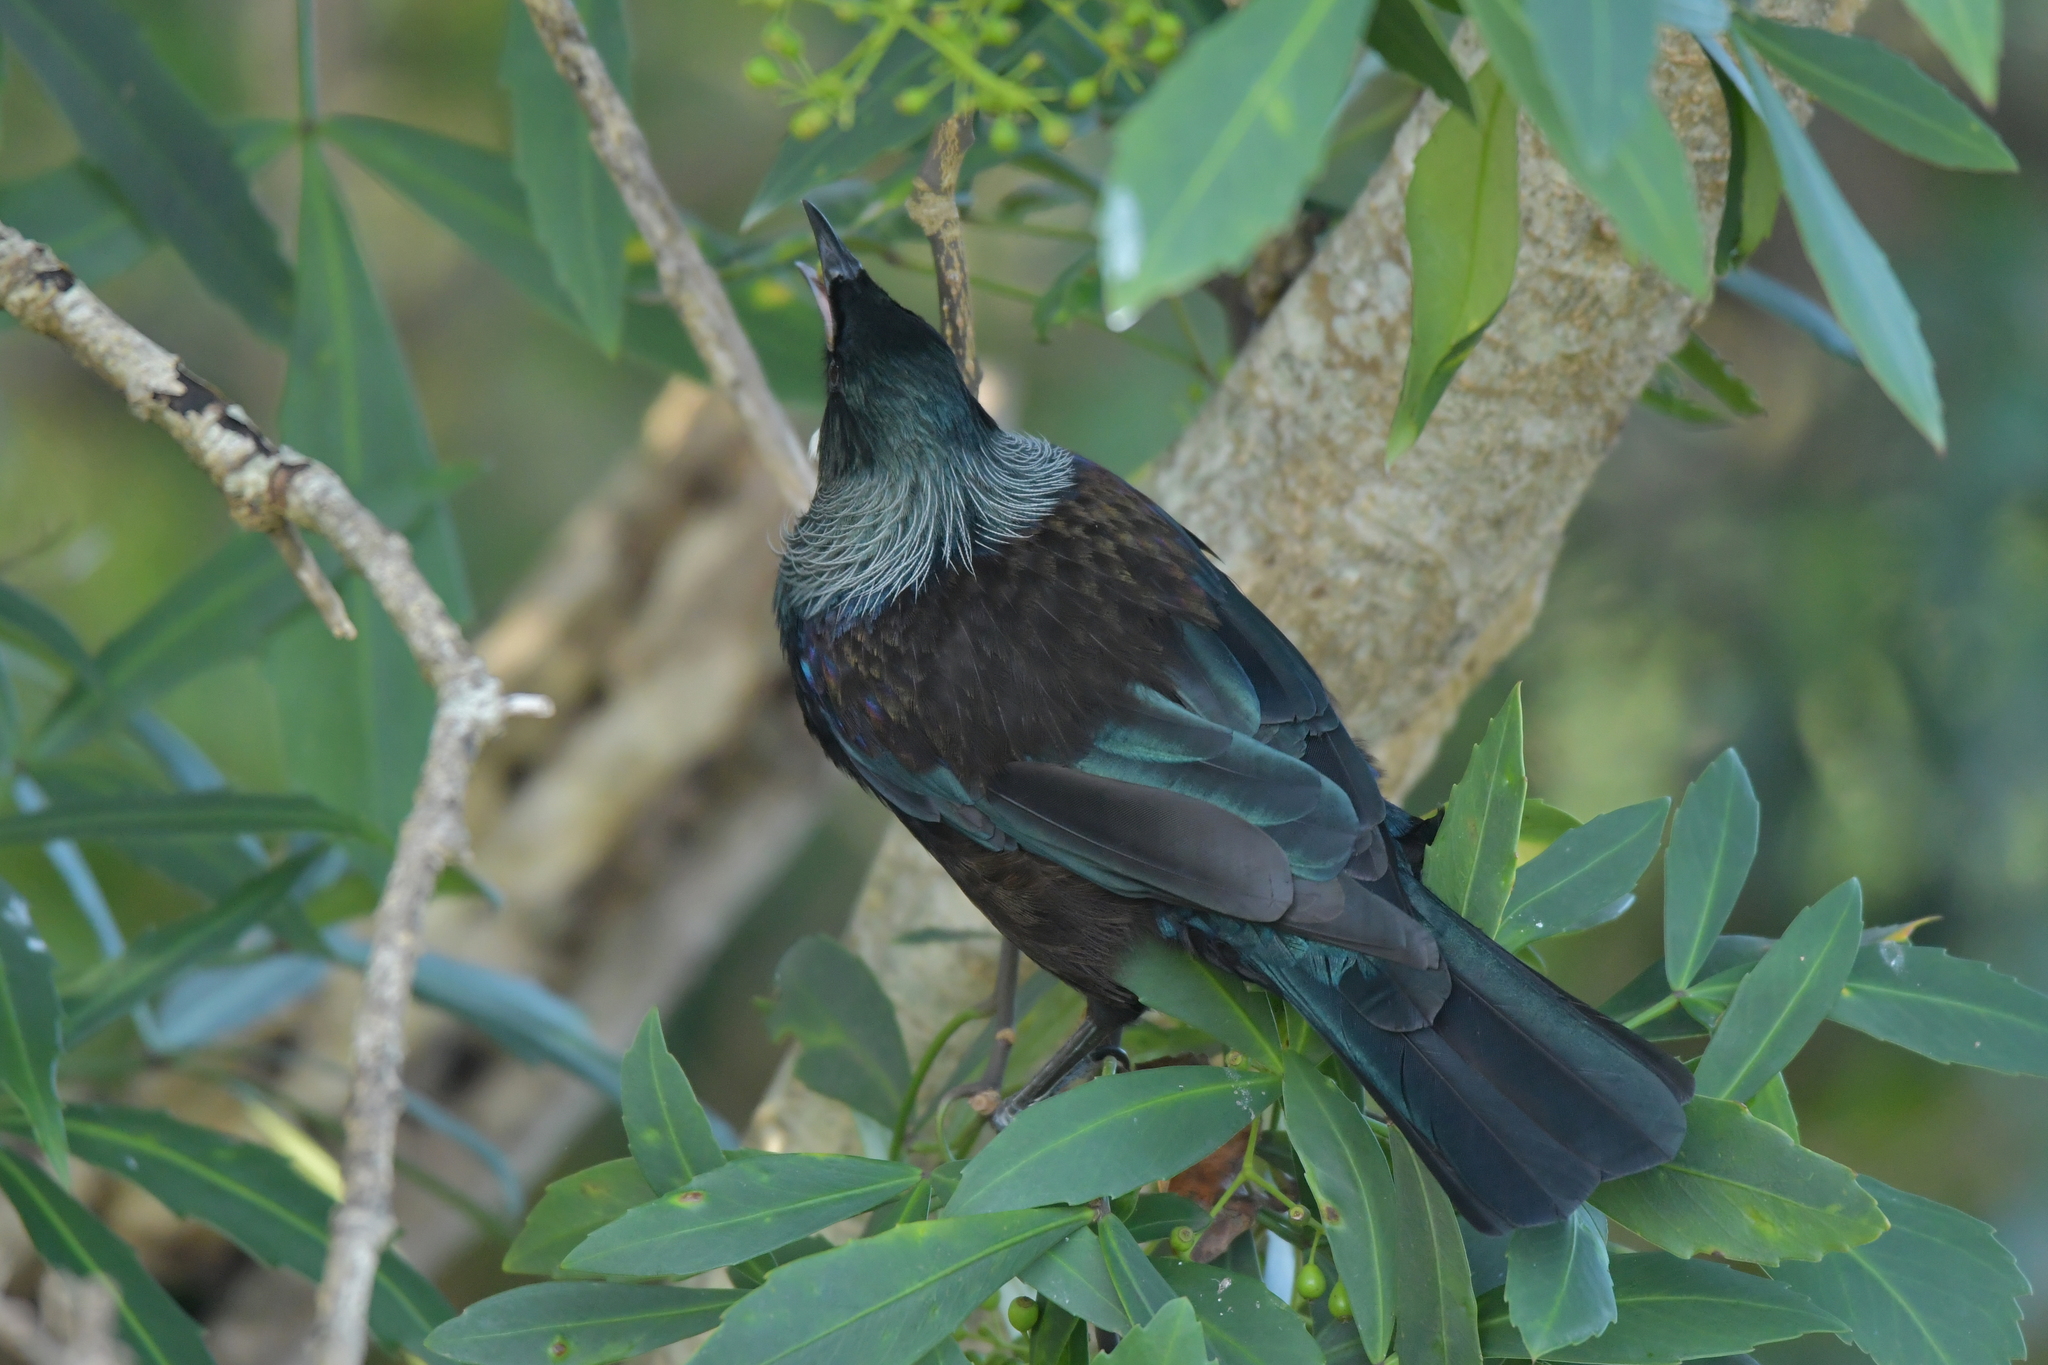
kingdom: Animalia
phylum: Chordata
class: Aves
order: Passeriformes
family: Meliphagidae
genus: Prosthemadera
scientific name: Prosthemadera novaeseelandiae
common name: Tui
